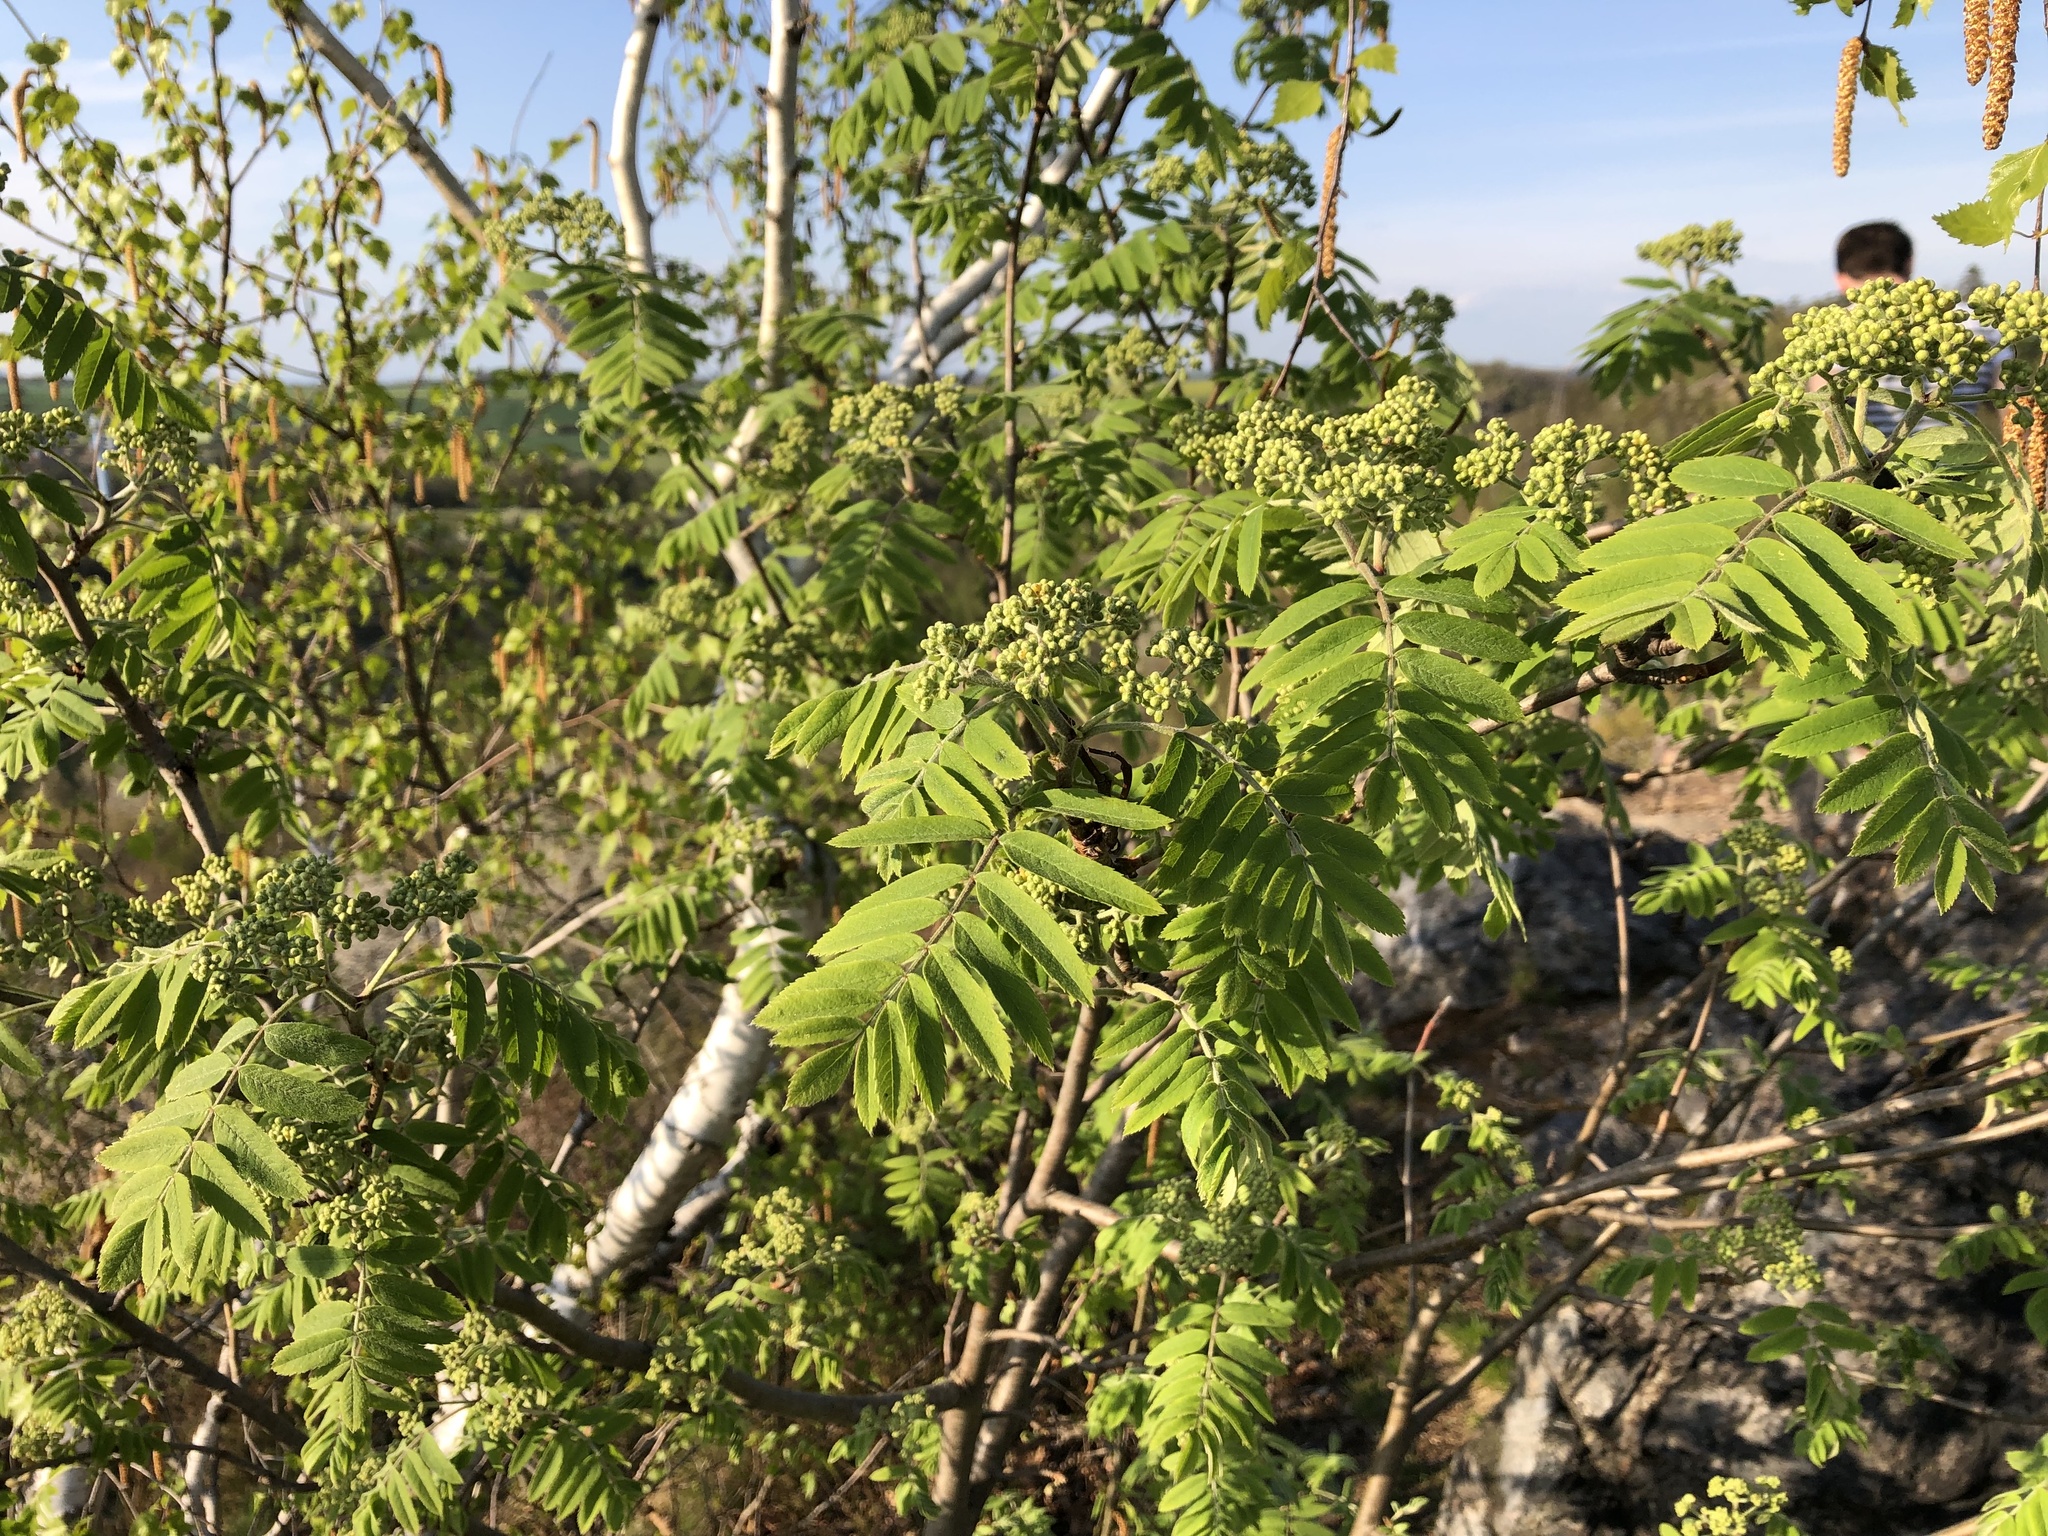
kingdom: Plantae
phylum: Tracheophyta
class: Magnoliopsida
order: Rosales
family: Rosaceae
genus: Sorbus
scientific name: Sorbus aucuparia
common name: Rowan
